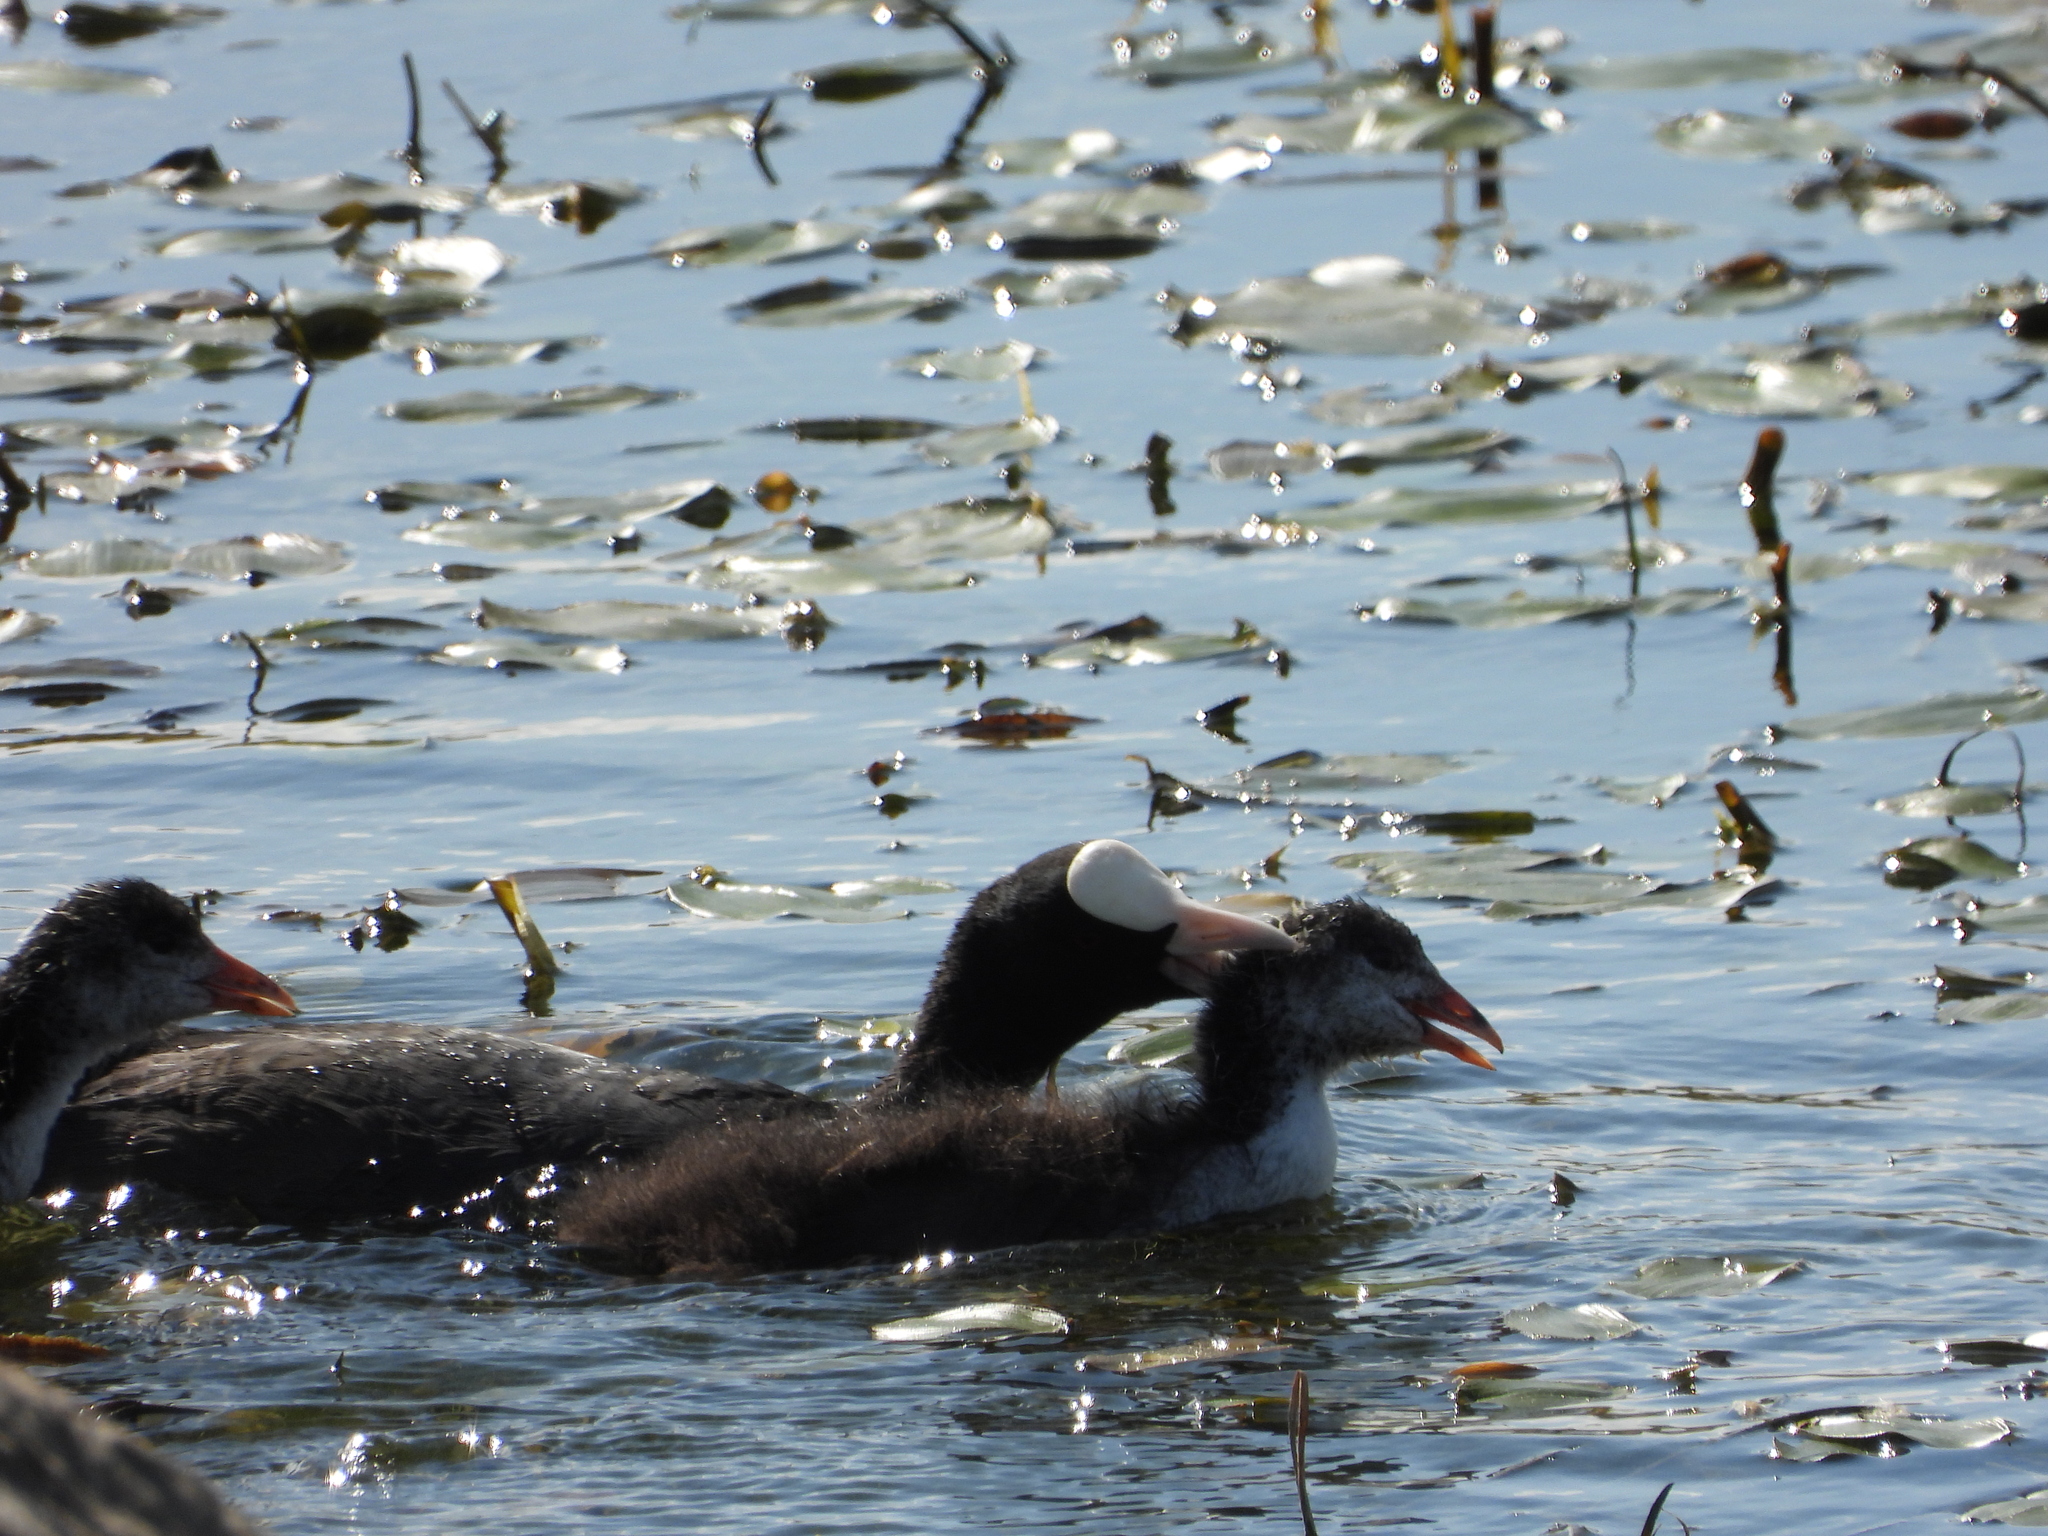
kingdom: Animalia
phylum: Chordata
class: Aves
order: Gruiformes
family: Rallidae
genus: Fulica
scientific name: Fulica atra
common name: Eurasian coot
